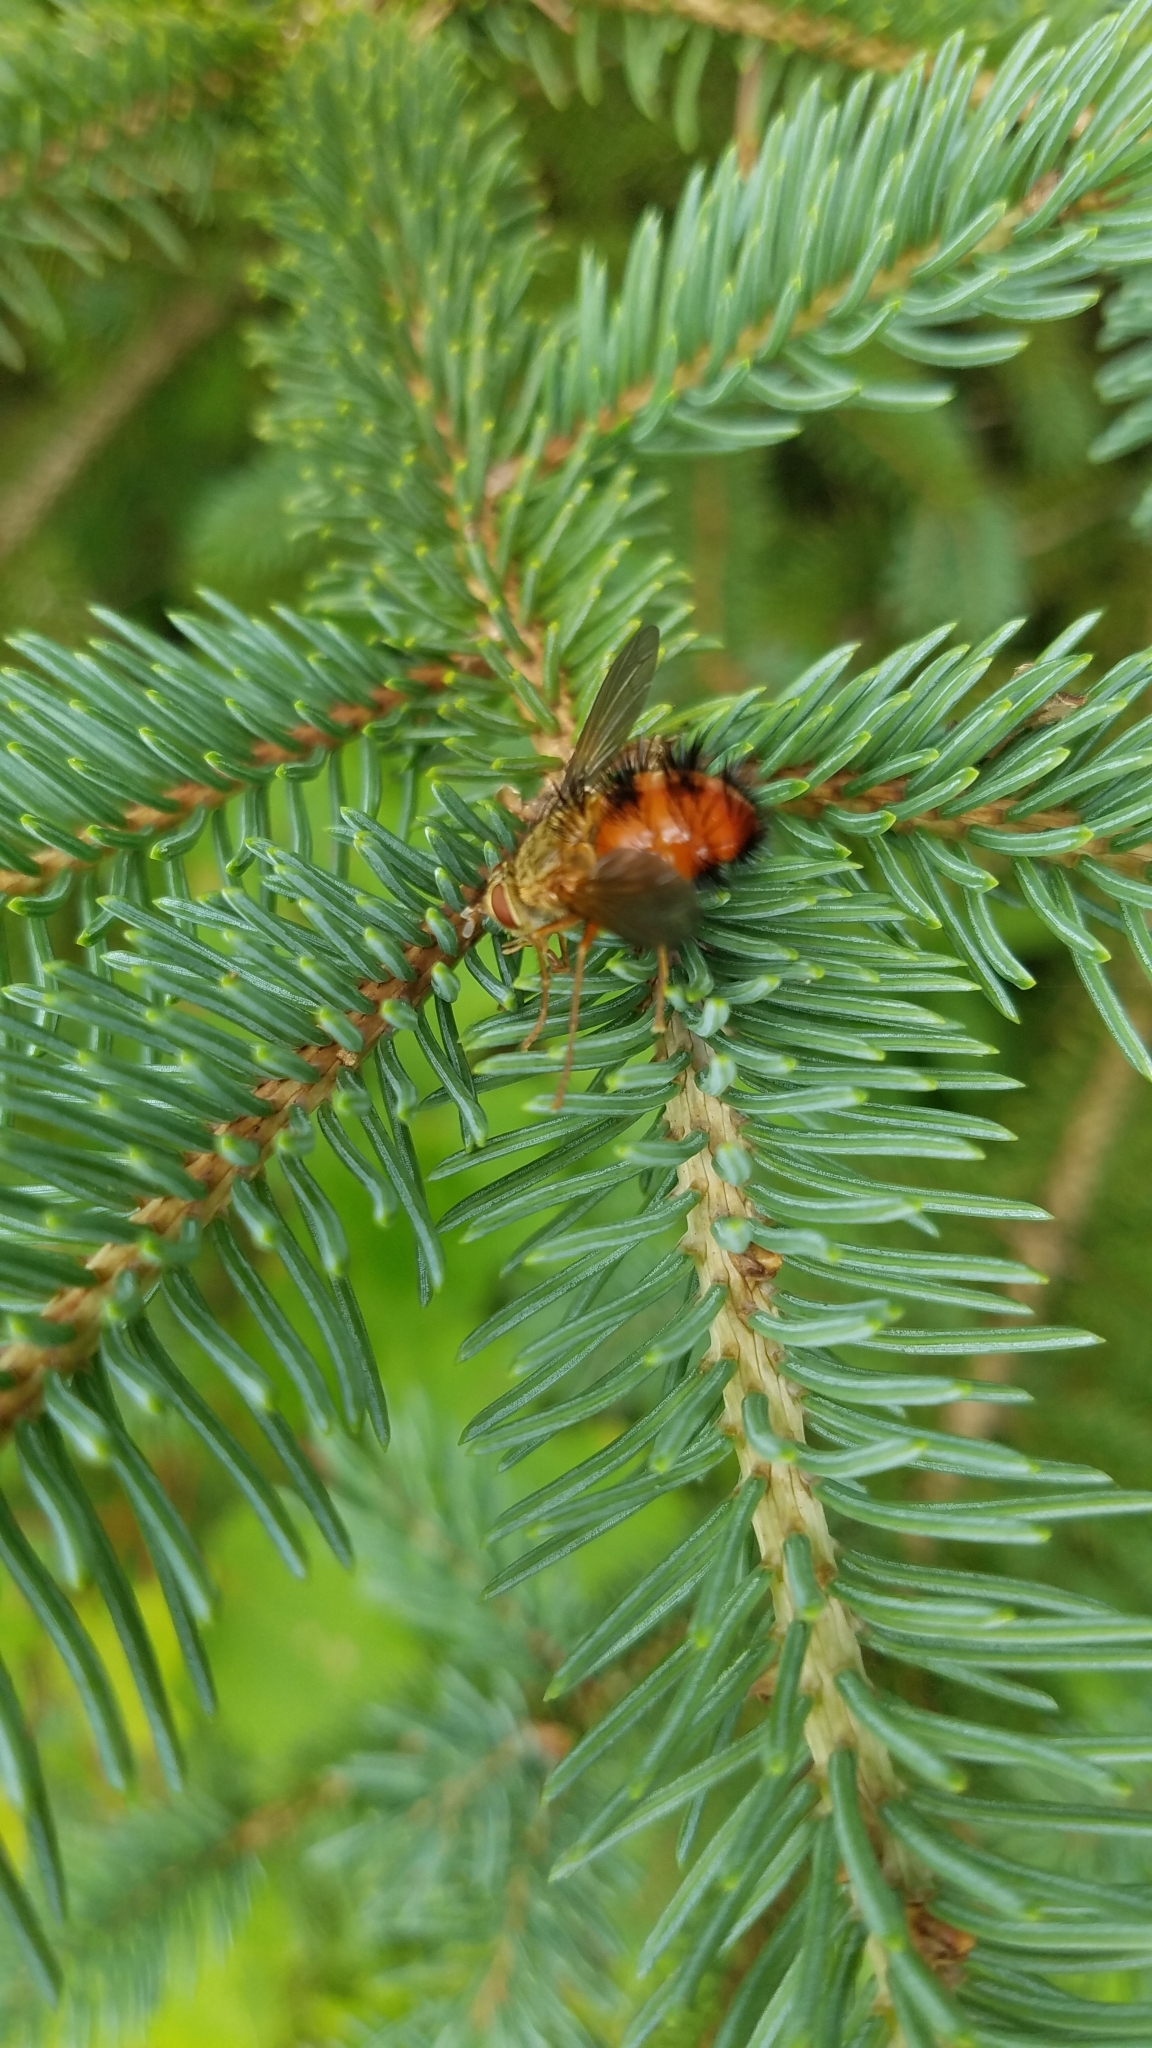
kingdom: Animalia
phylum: Arthropoda
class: Insecta
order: Diptera
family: Tachinidae
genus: Hystricia
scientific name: Hystricia abrupta
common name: Tomato bristle fly
